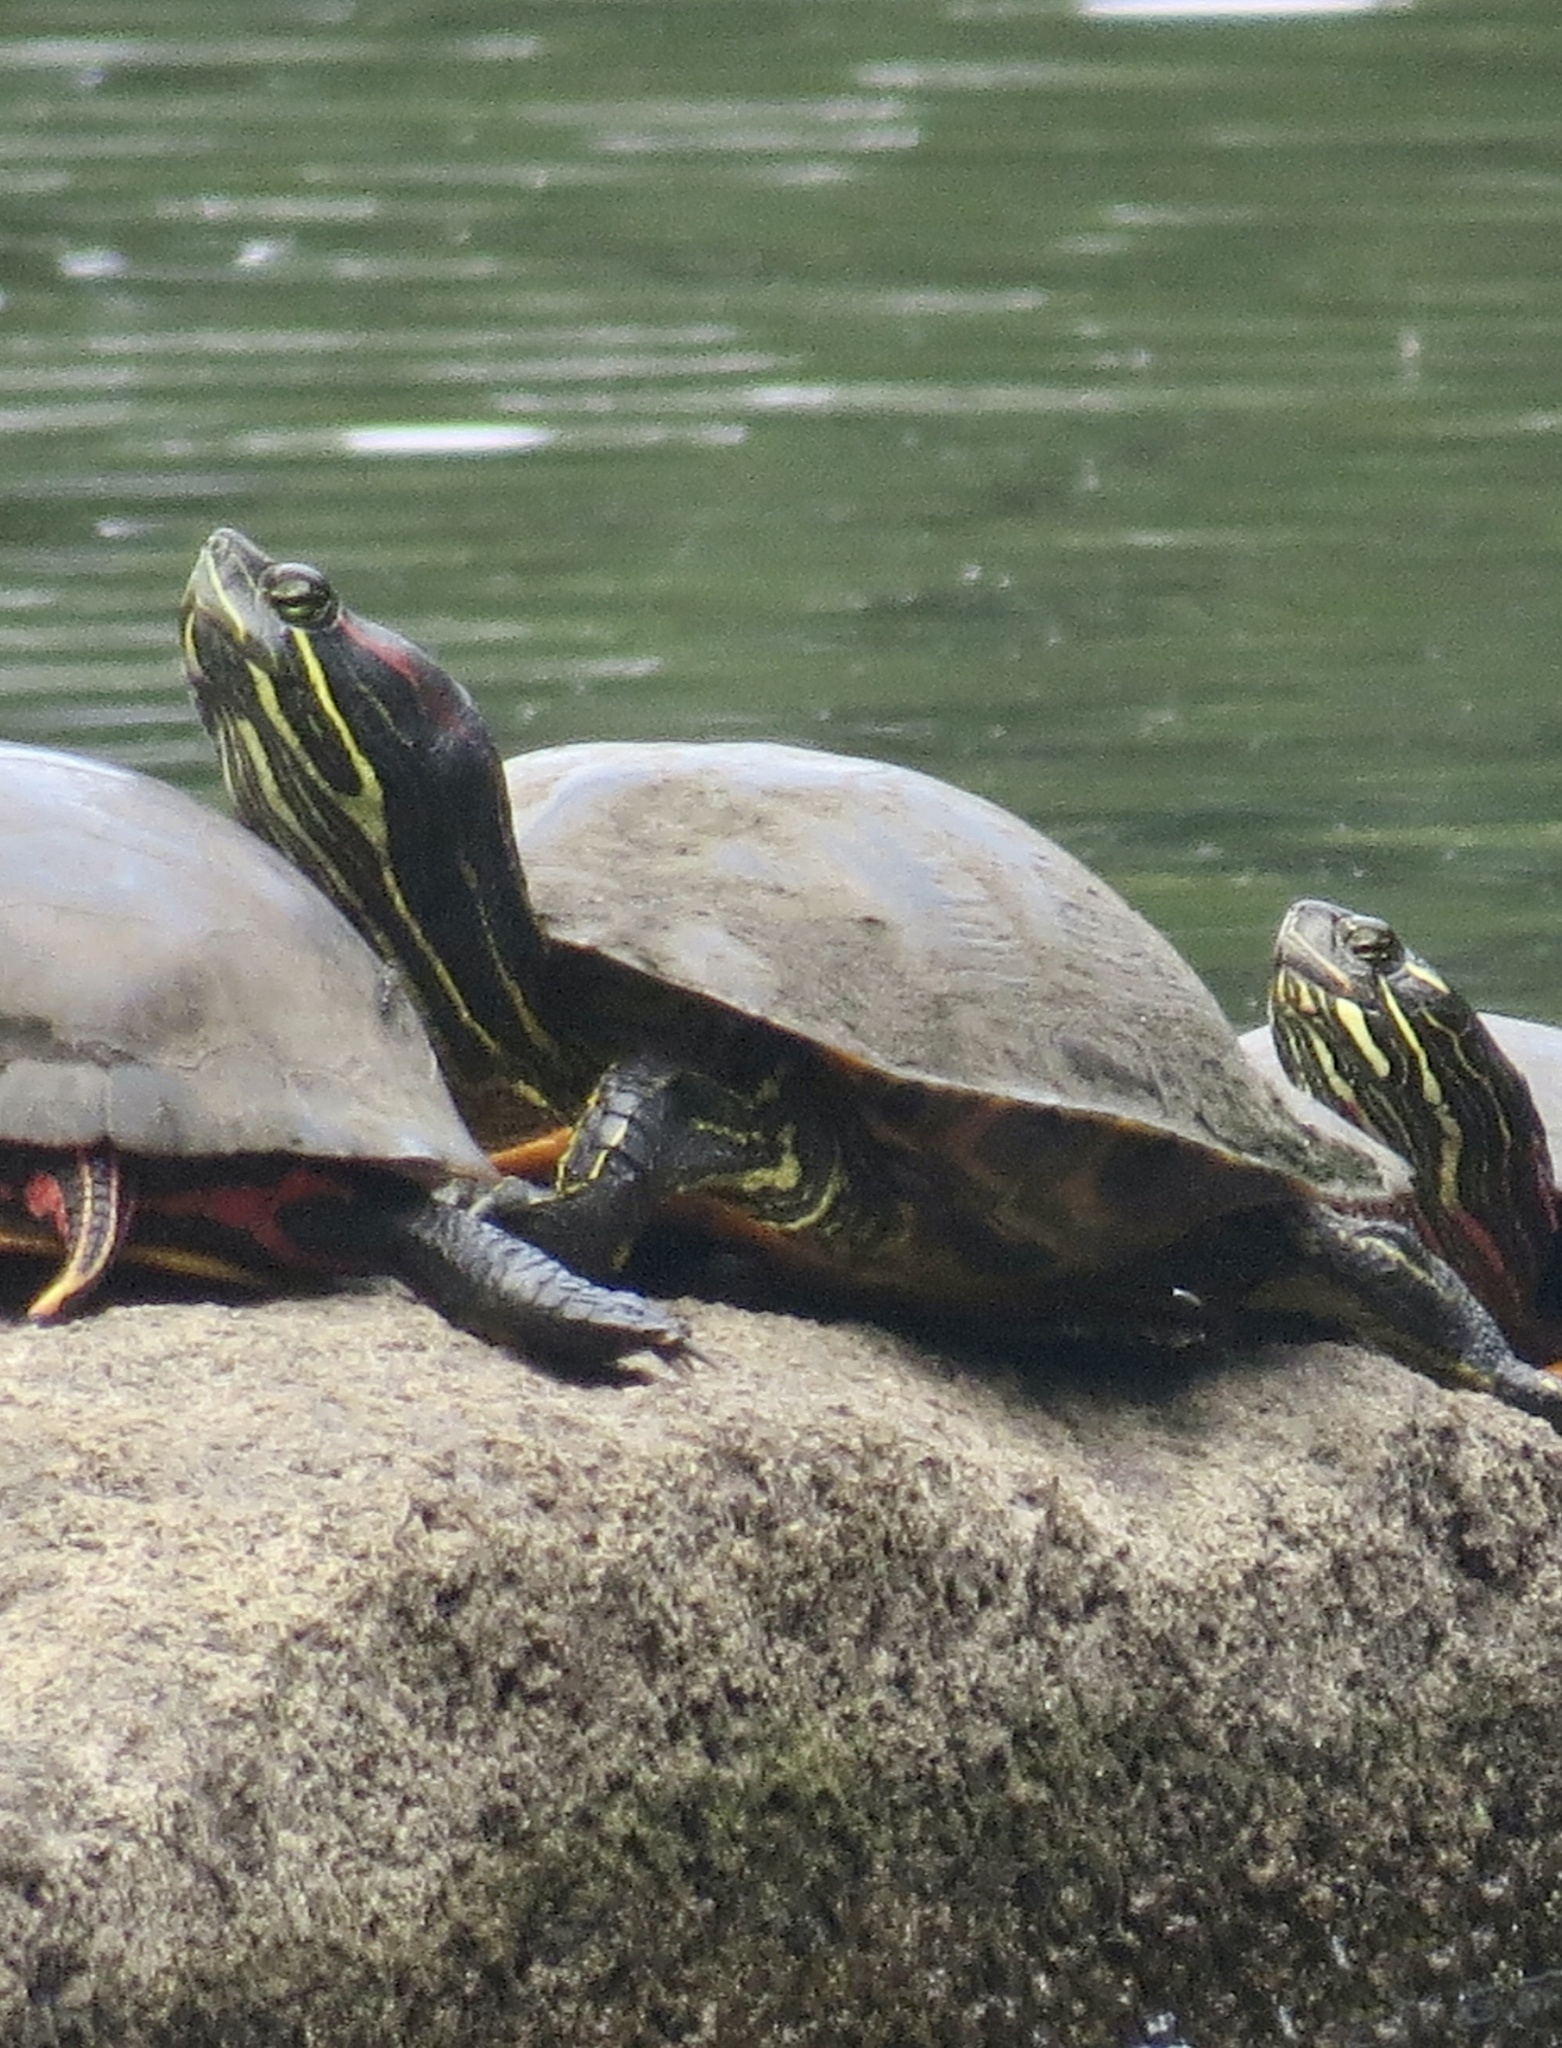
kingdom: Animalia
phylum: Chordata
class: Testudines
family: Emydidae
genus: Trachemys
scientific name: Trachemys scripta
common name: Slider
